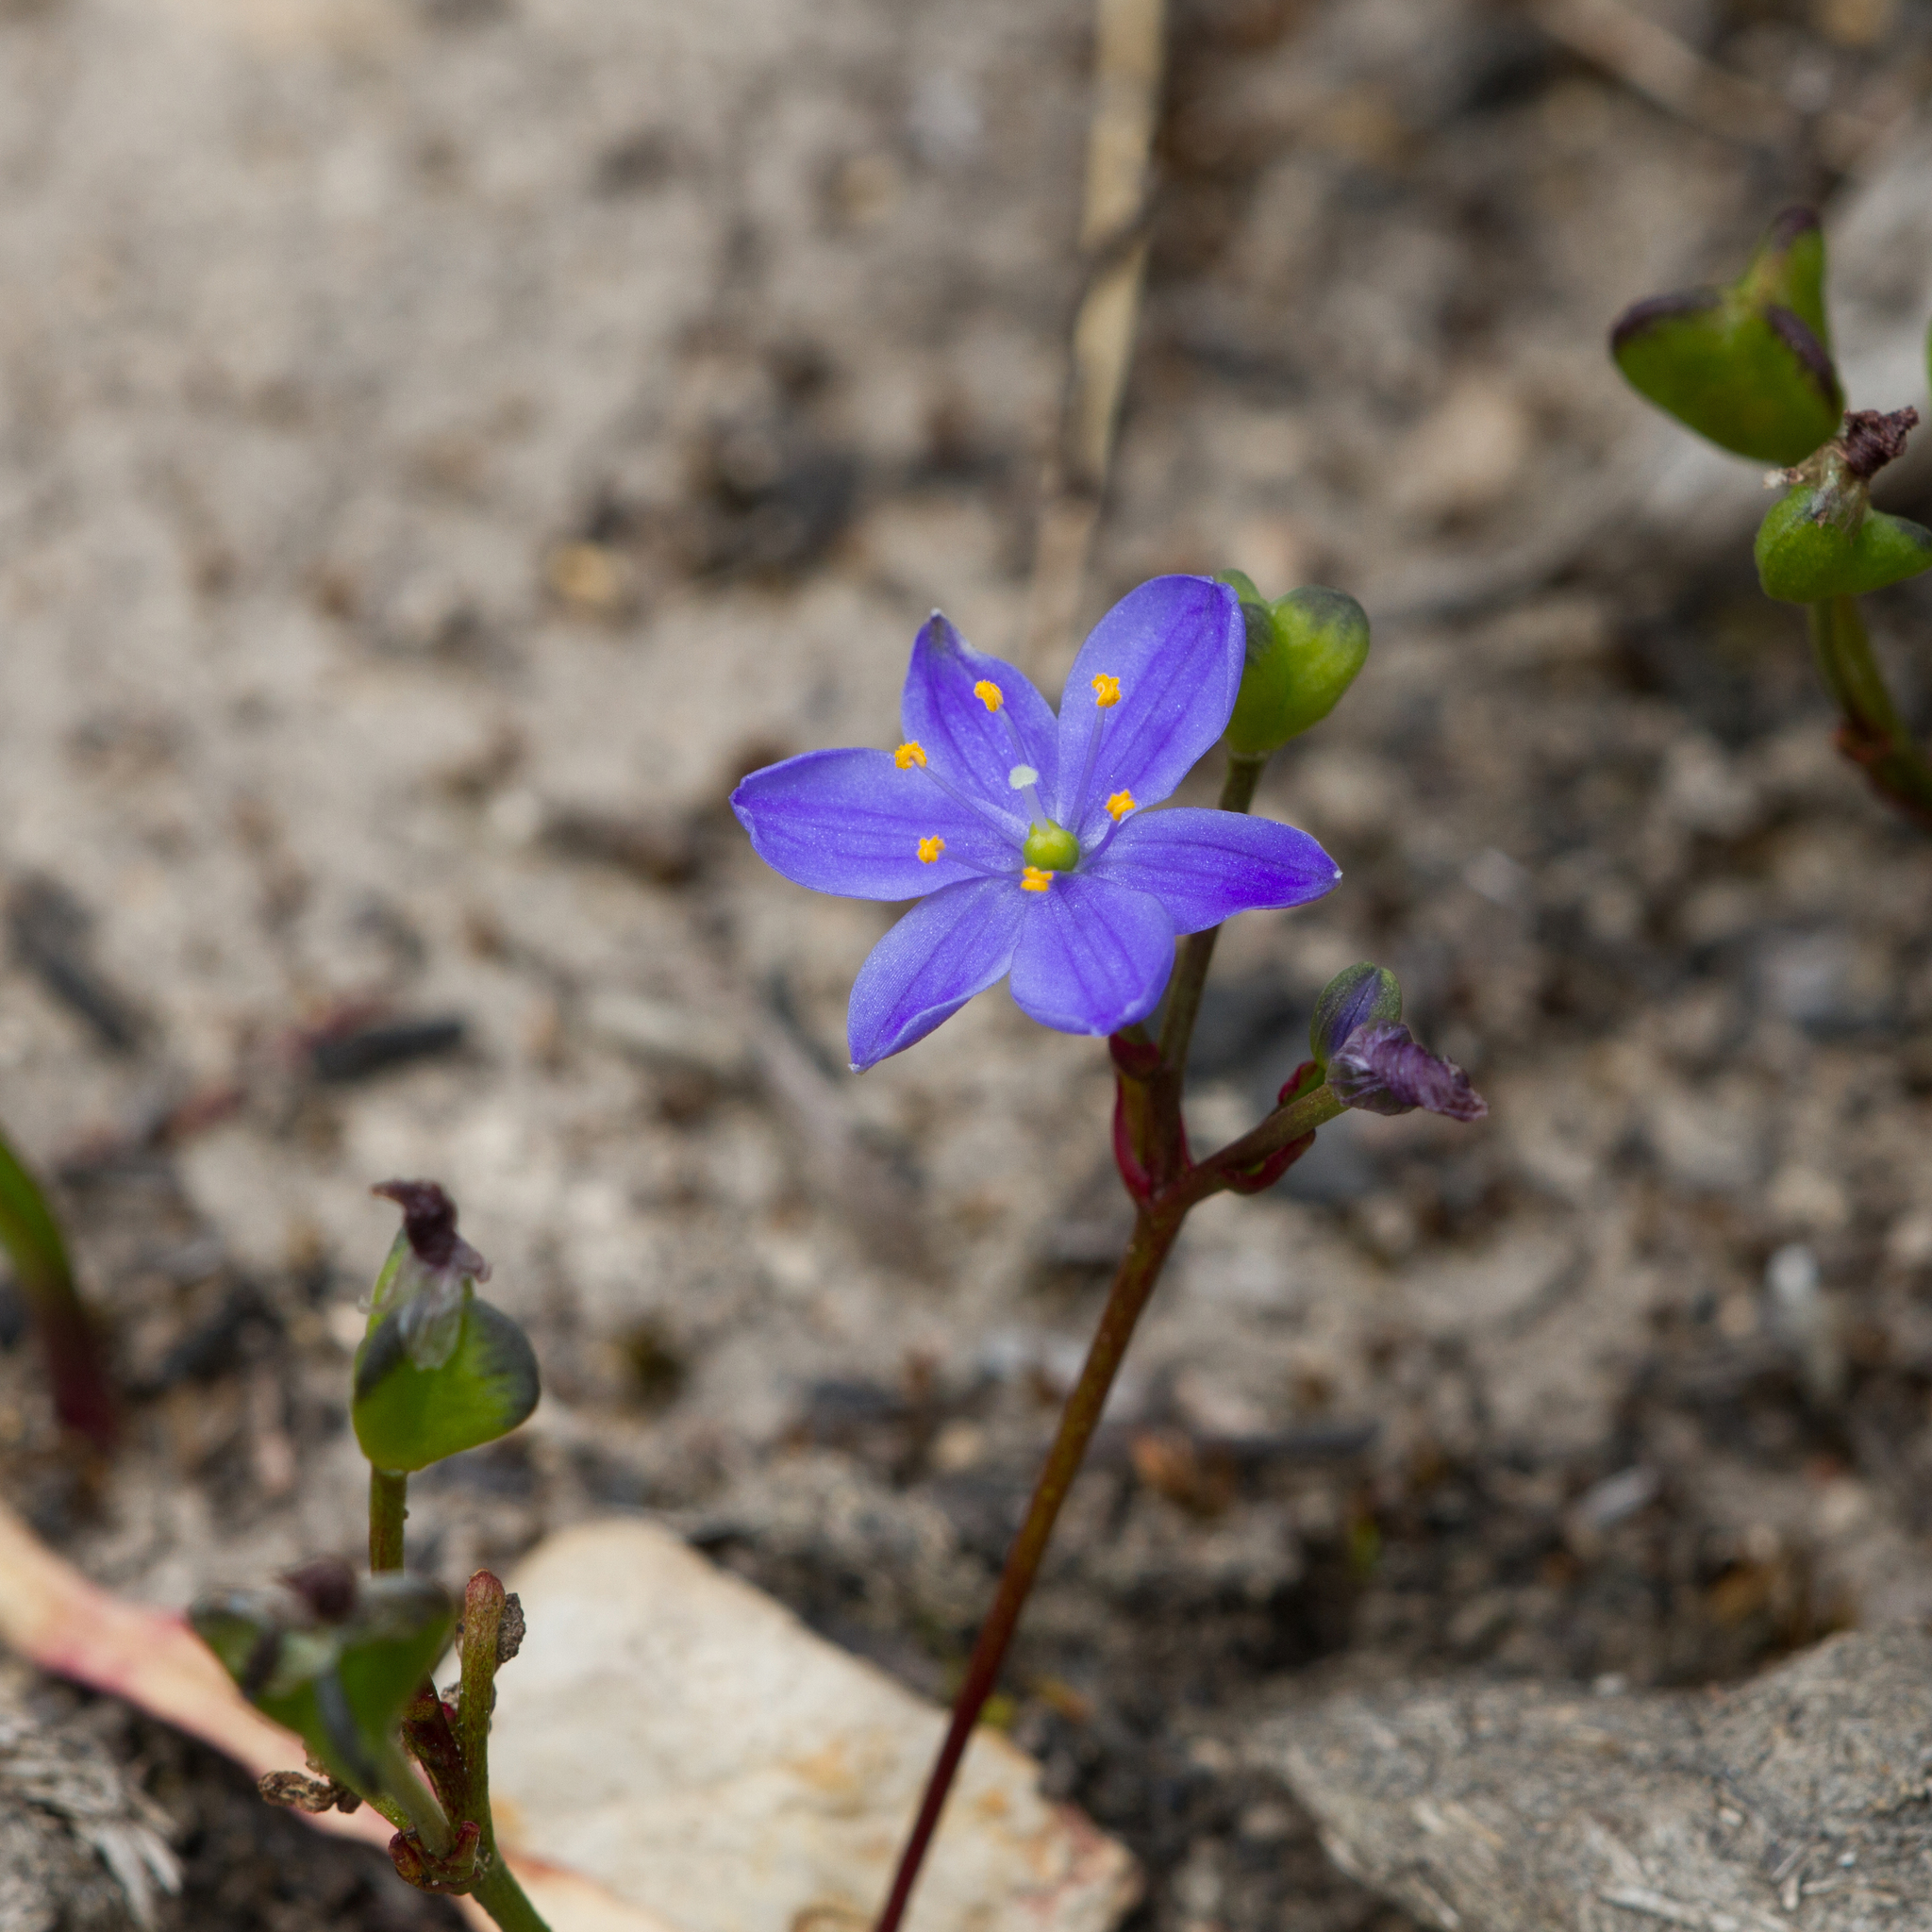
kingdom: Plantae
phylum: Tracheophyta
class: Liliopsida
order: Asparagales
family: Asphodelaceae
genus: Chamaescilla
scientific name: Chamaescilla corymbosa
